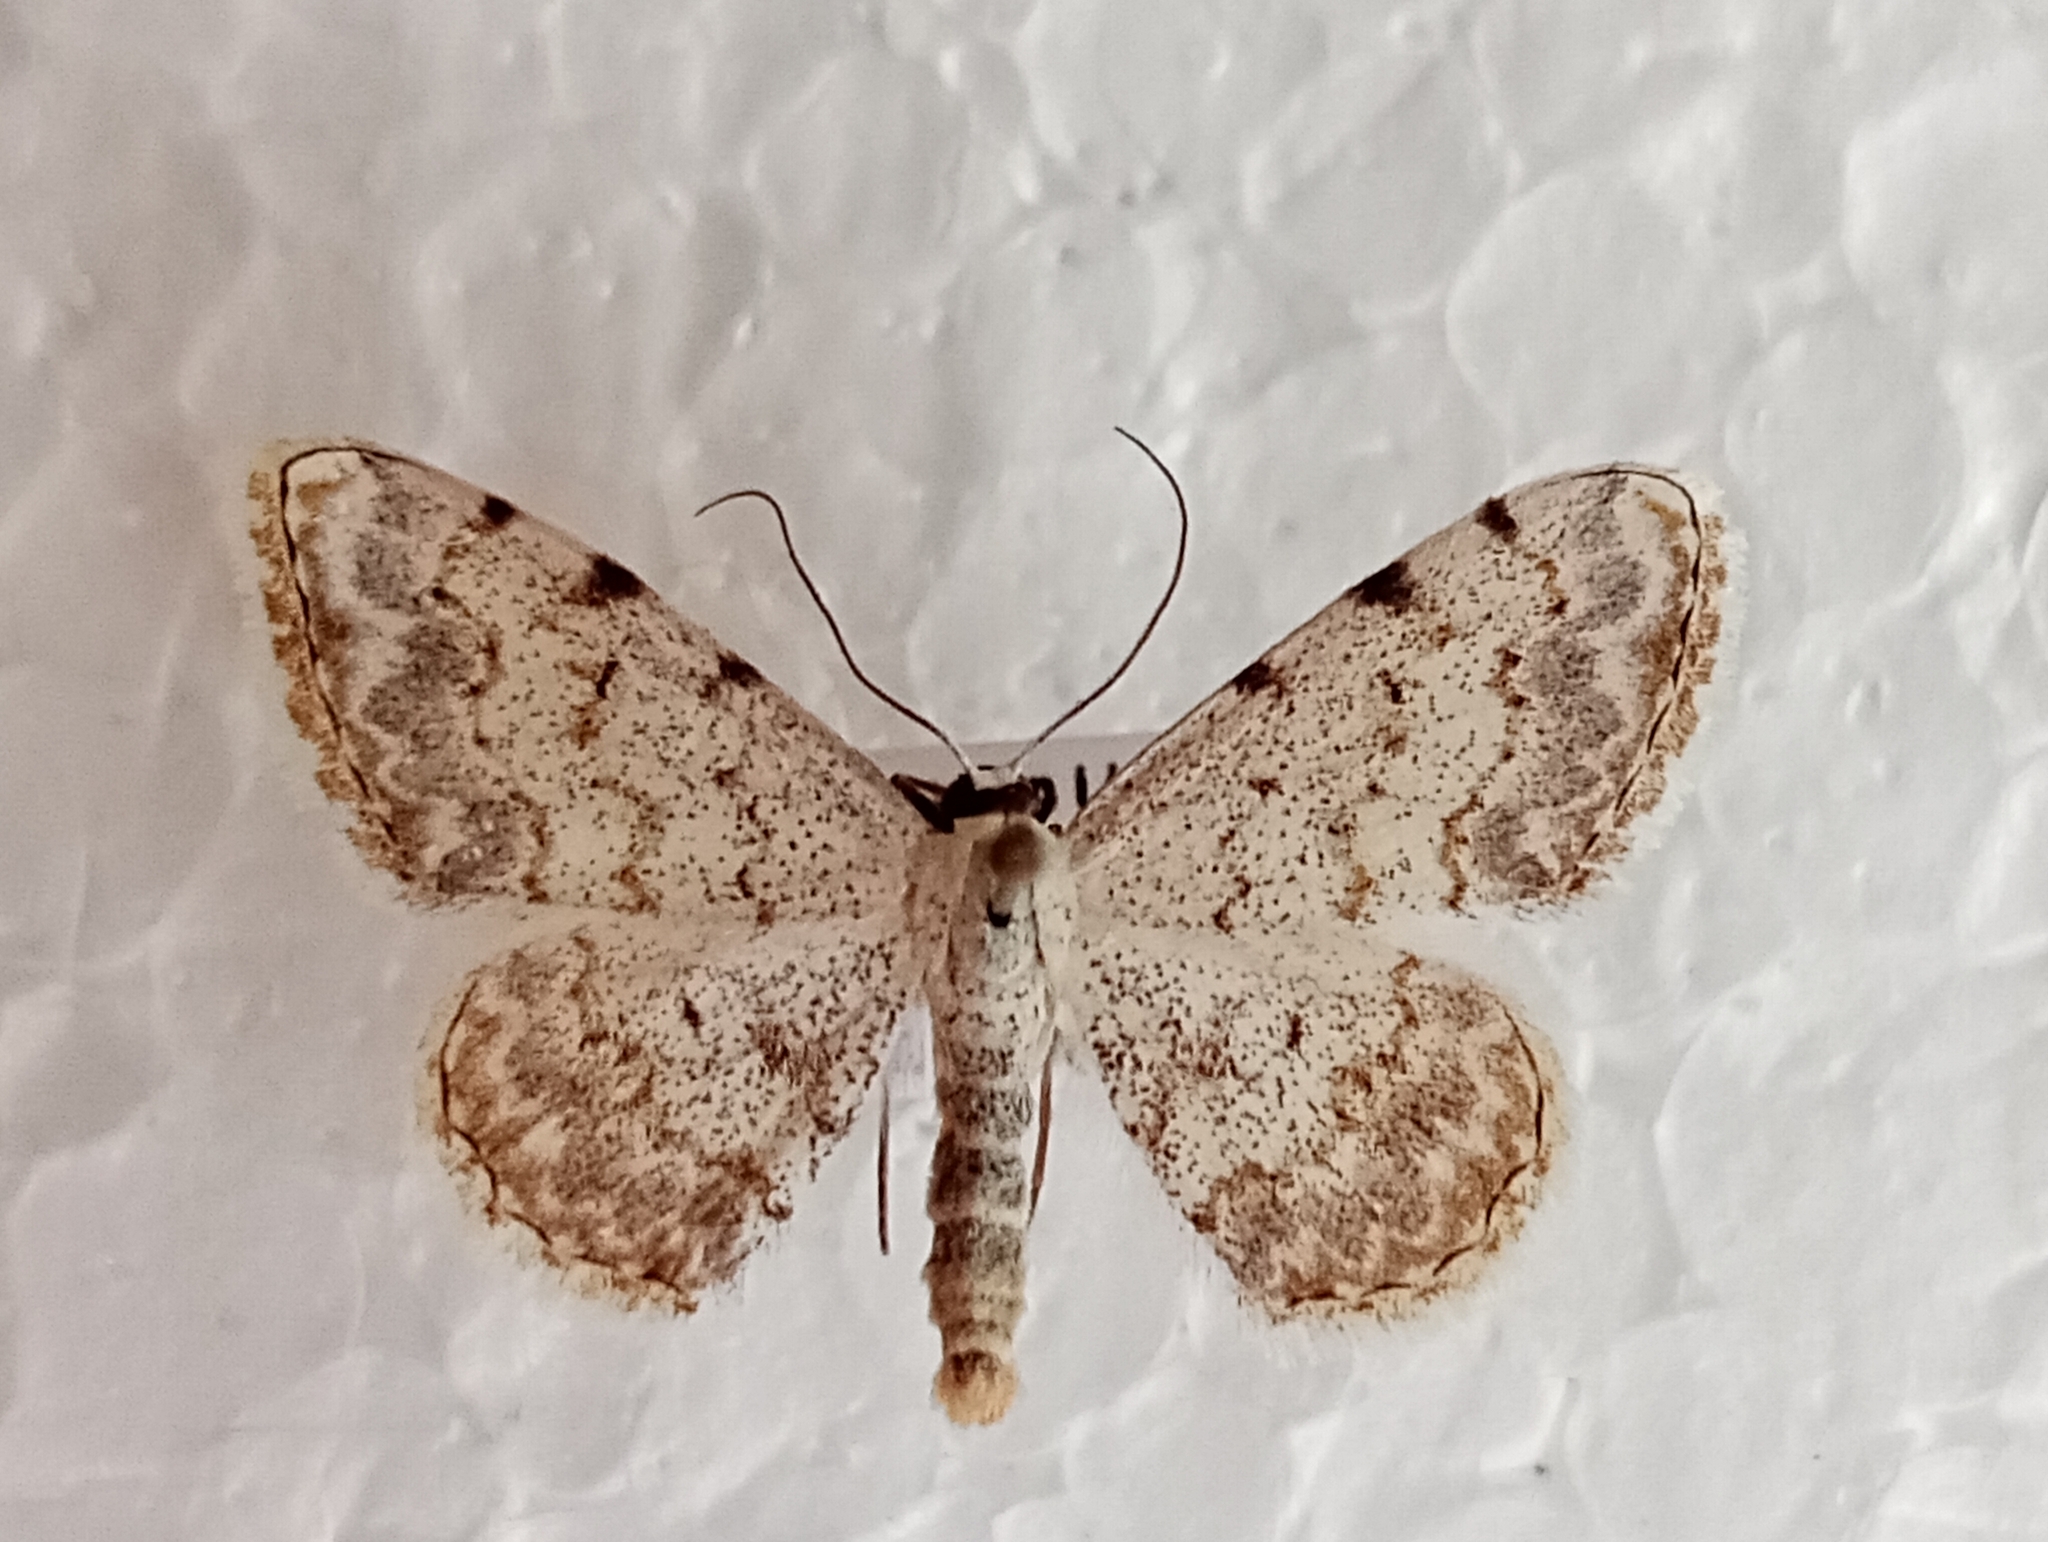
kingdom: Animalia
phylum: Arthropoda
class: Insecta
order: Lepidoptera
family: Geometridae
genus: Scopula
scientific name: Scopula submutata
